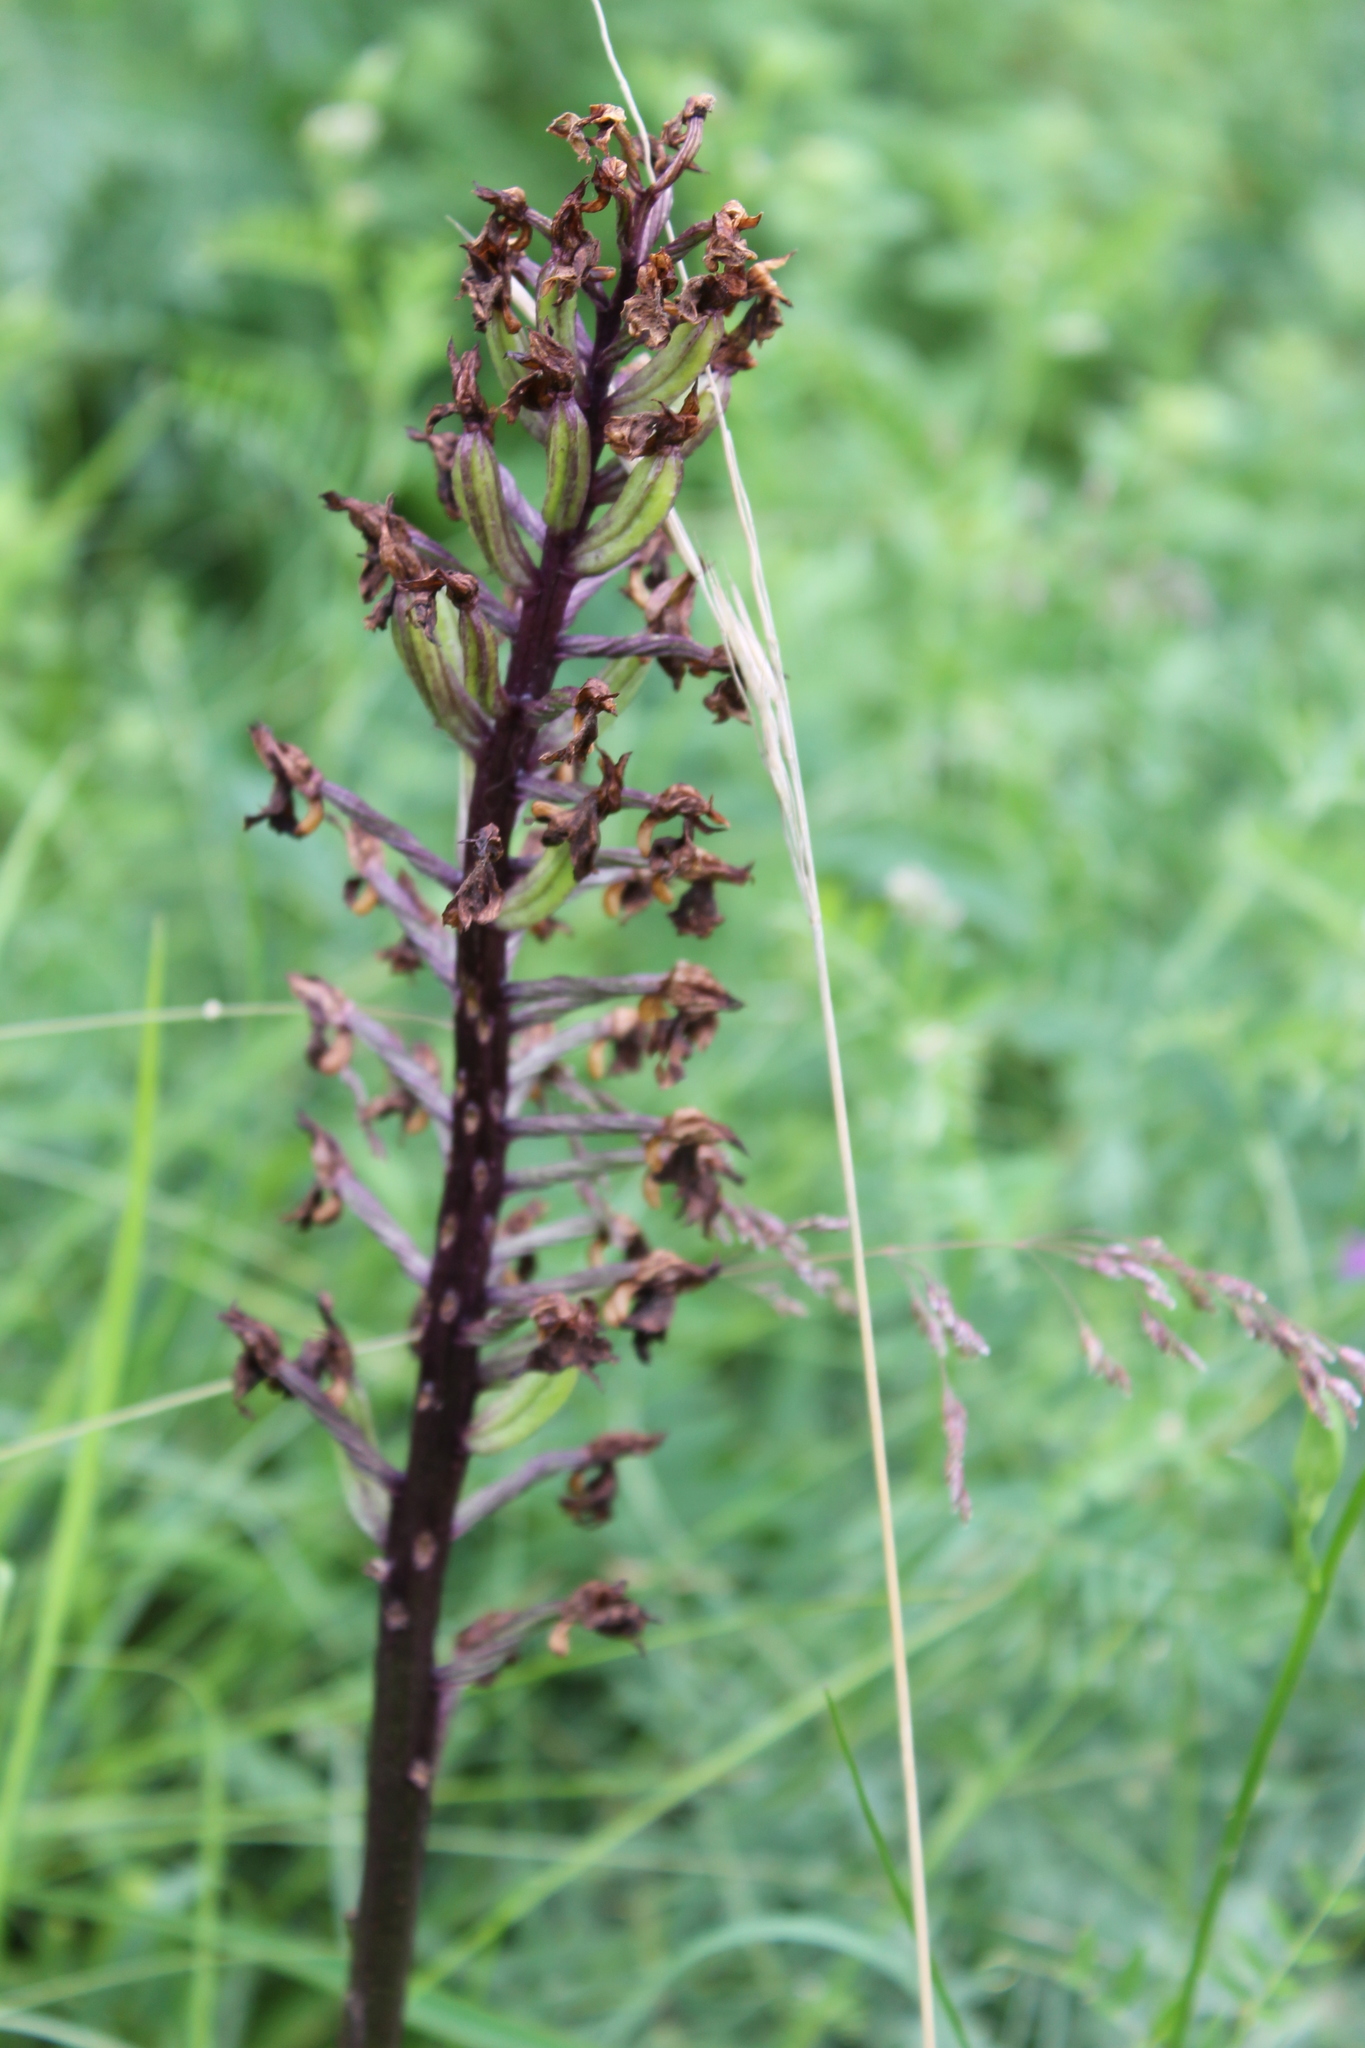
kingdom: Plantae
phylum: Tracheophyta
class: Liliopsida
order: Asparagales
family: Orchidaceae
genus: Orchis
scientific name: Orchis purpurea
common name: Lady orchid
